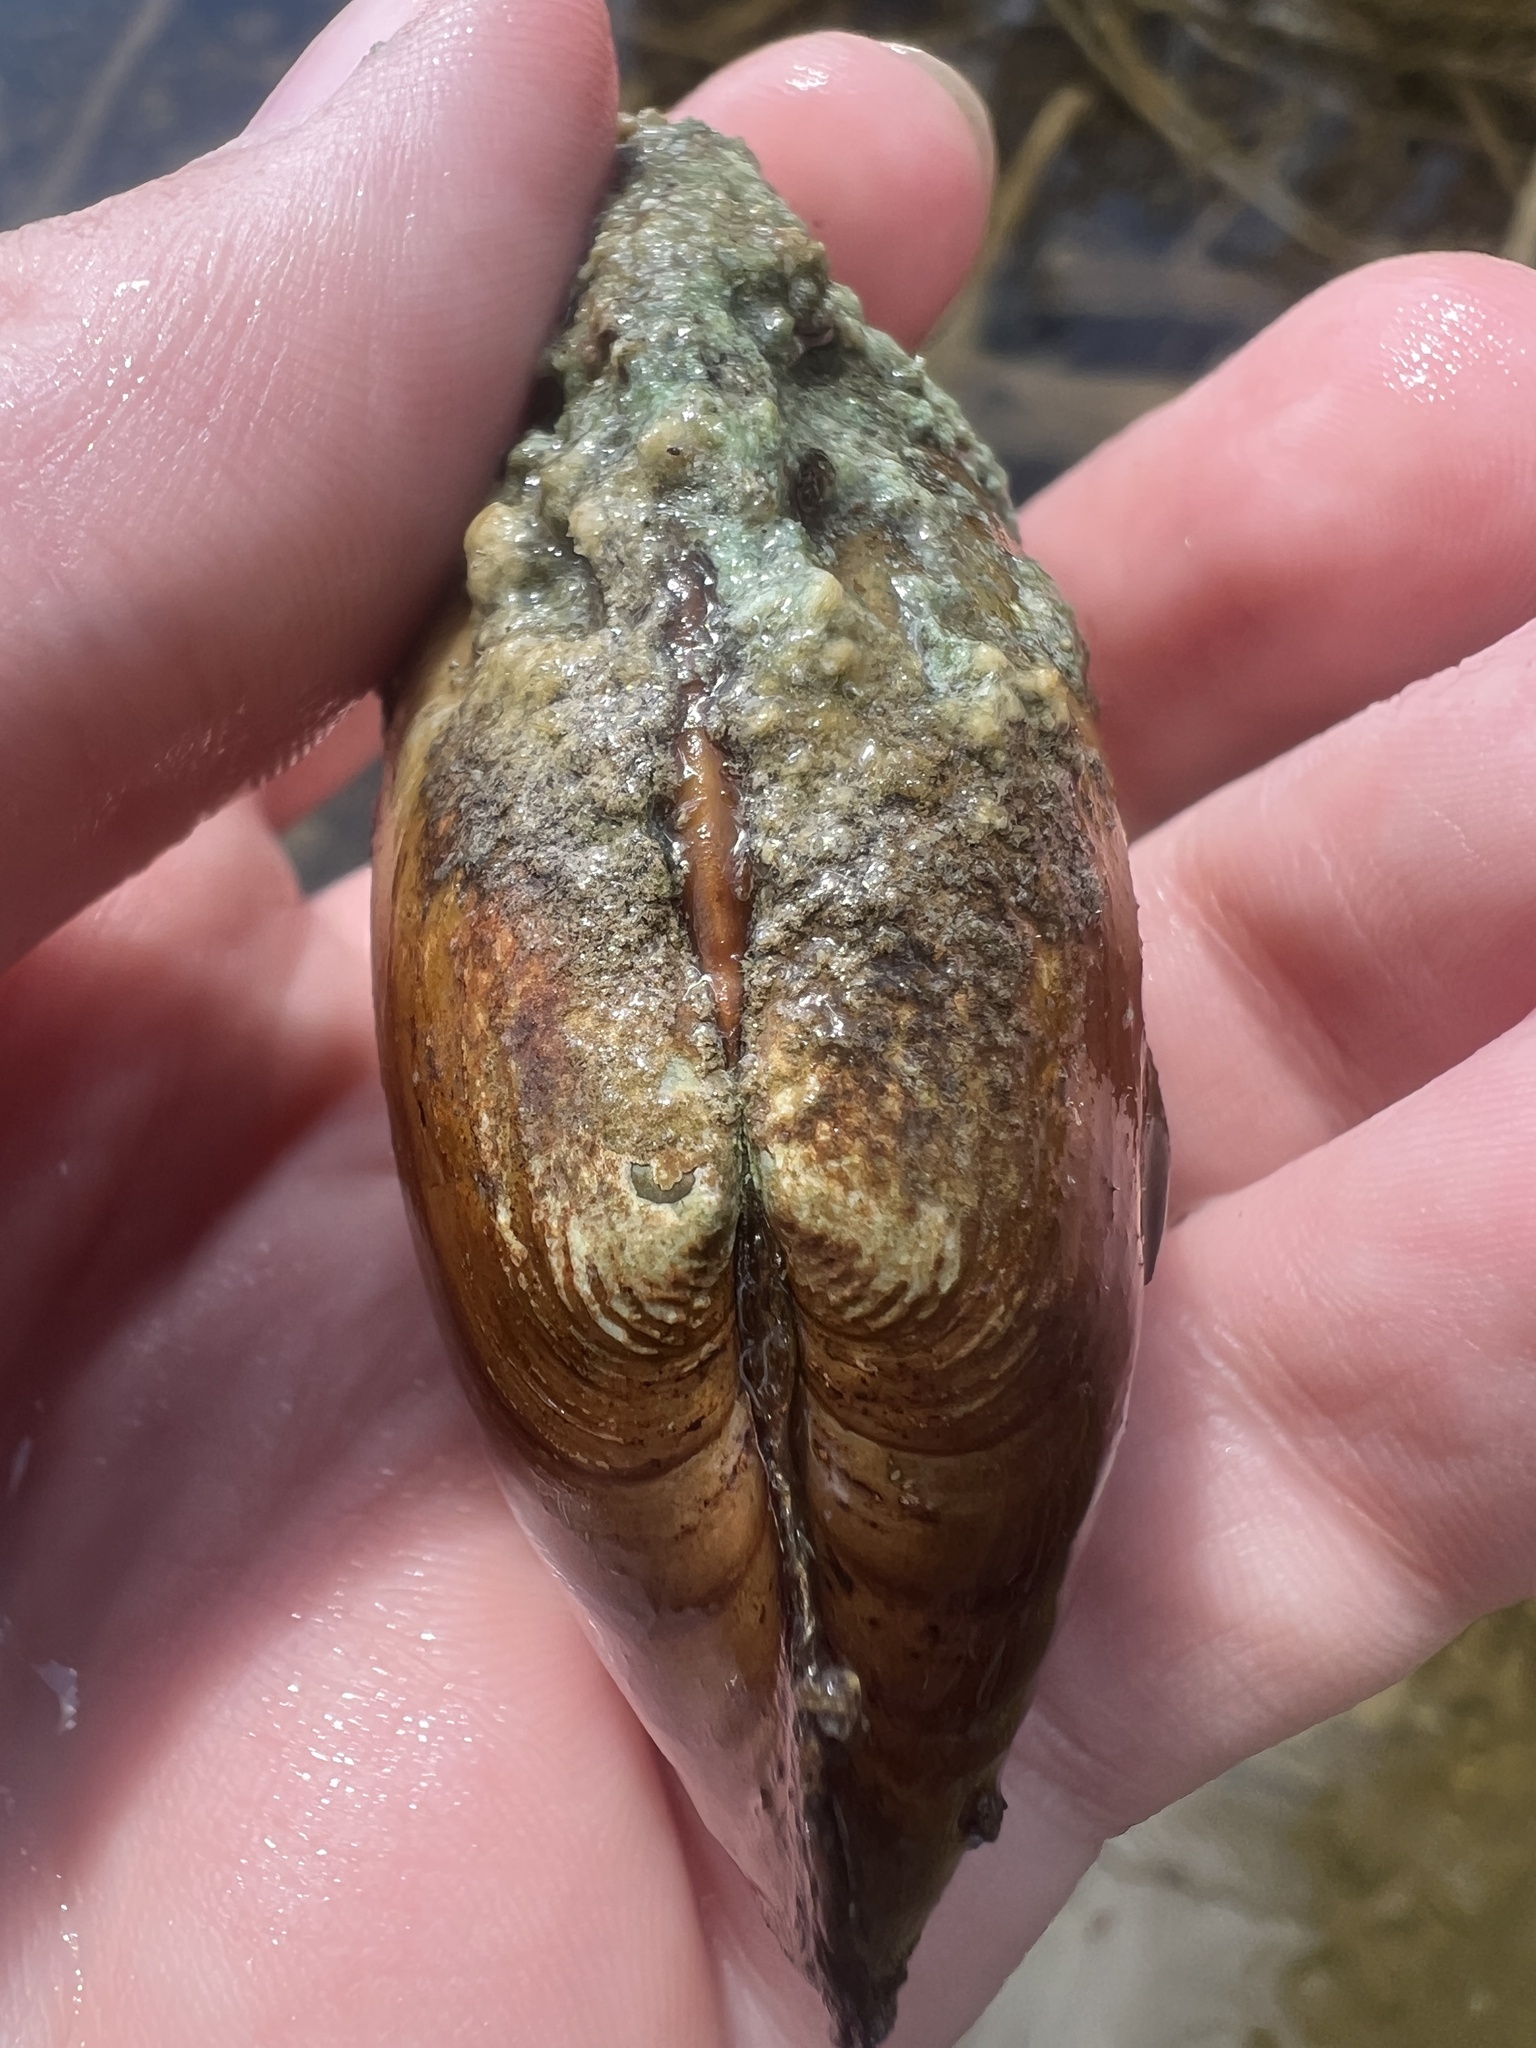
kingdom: Animalia
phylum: Mollusca
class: Bivalvia
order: Unionida
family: Unionidae
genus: Lampsilis
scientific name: Lampsilis siliquoidea
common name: Fatmucket
